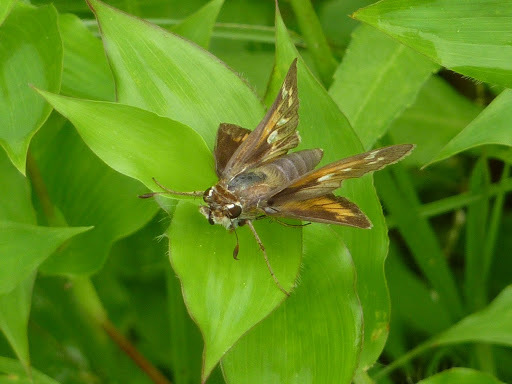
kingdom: Animalia
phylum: Arthropoda
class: Insecta
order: Lepidoptera
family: Hesperiidae
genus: Atalopedes
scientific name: Atalopedes
